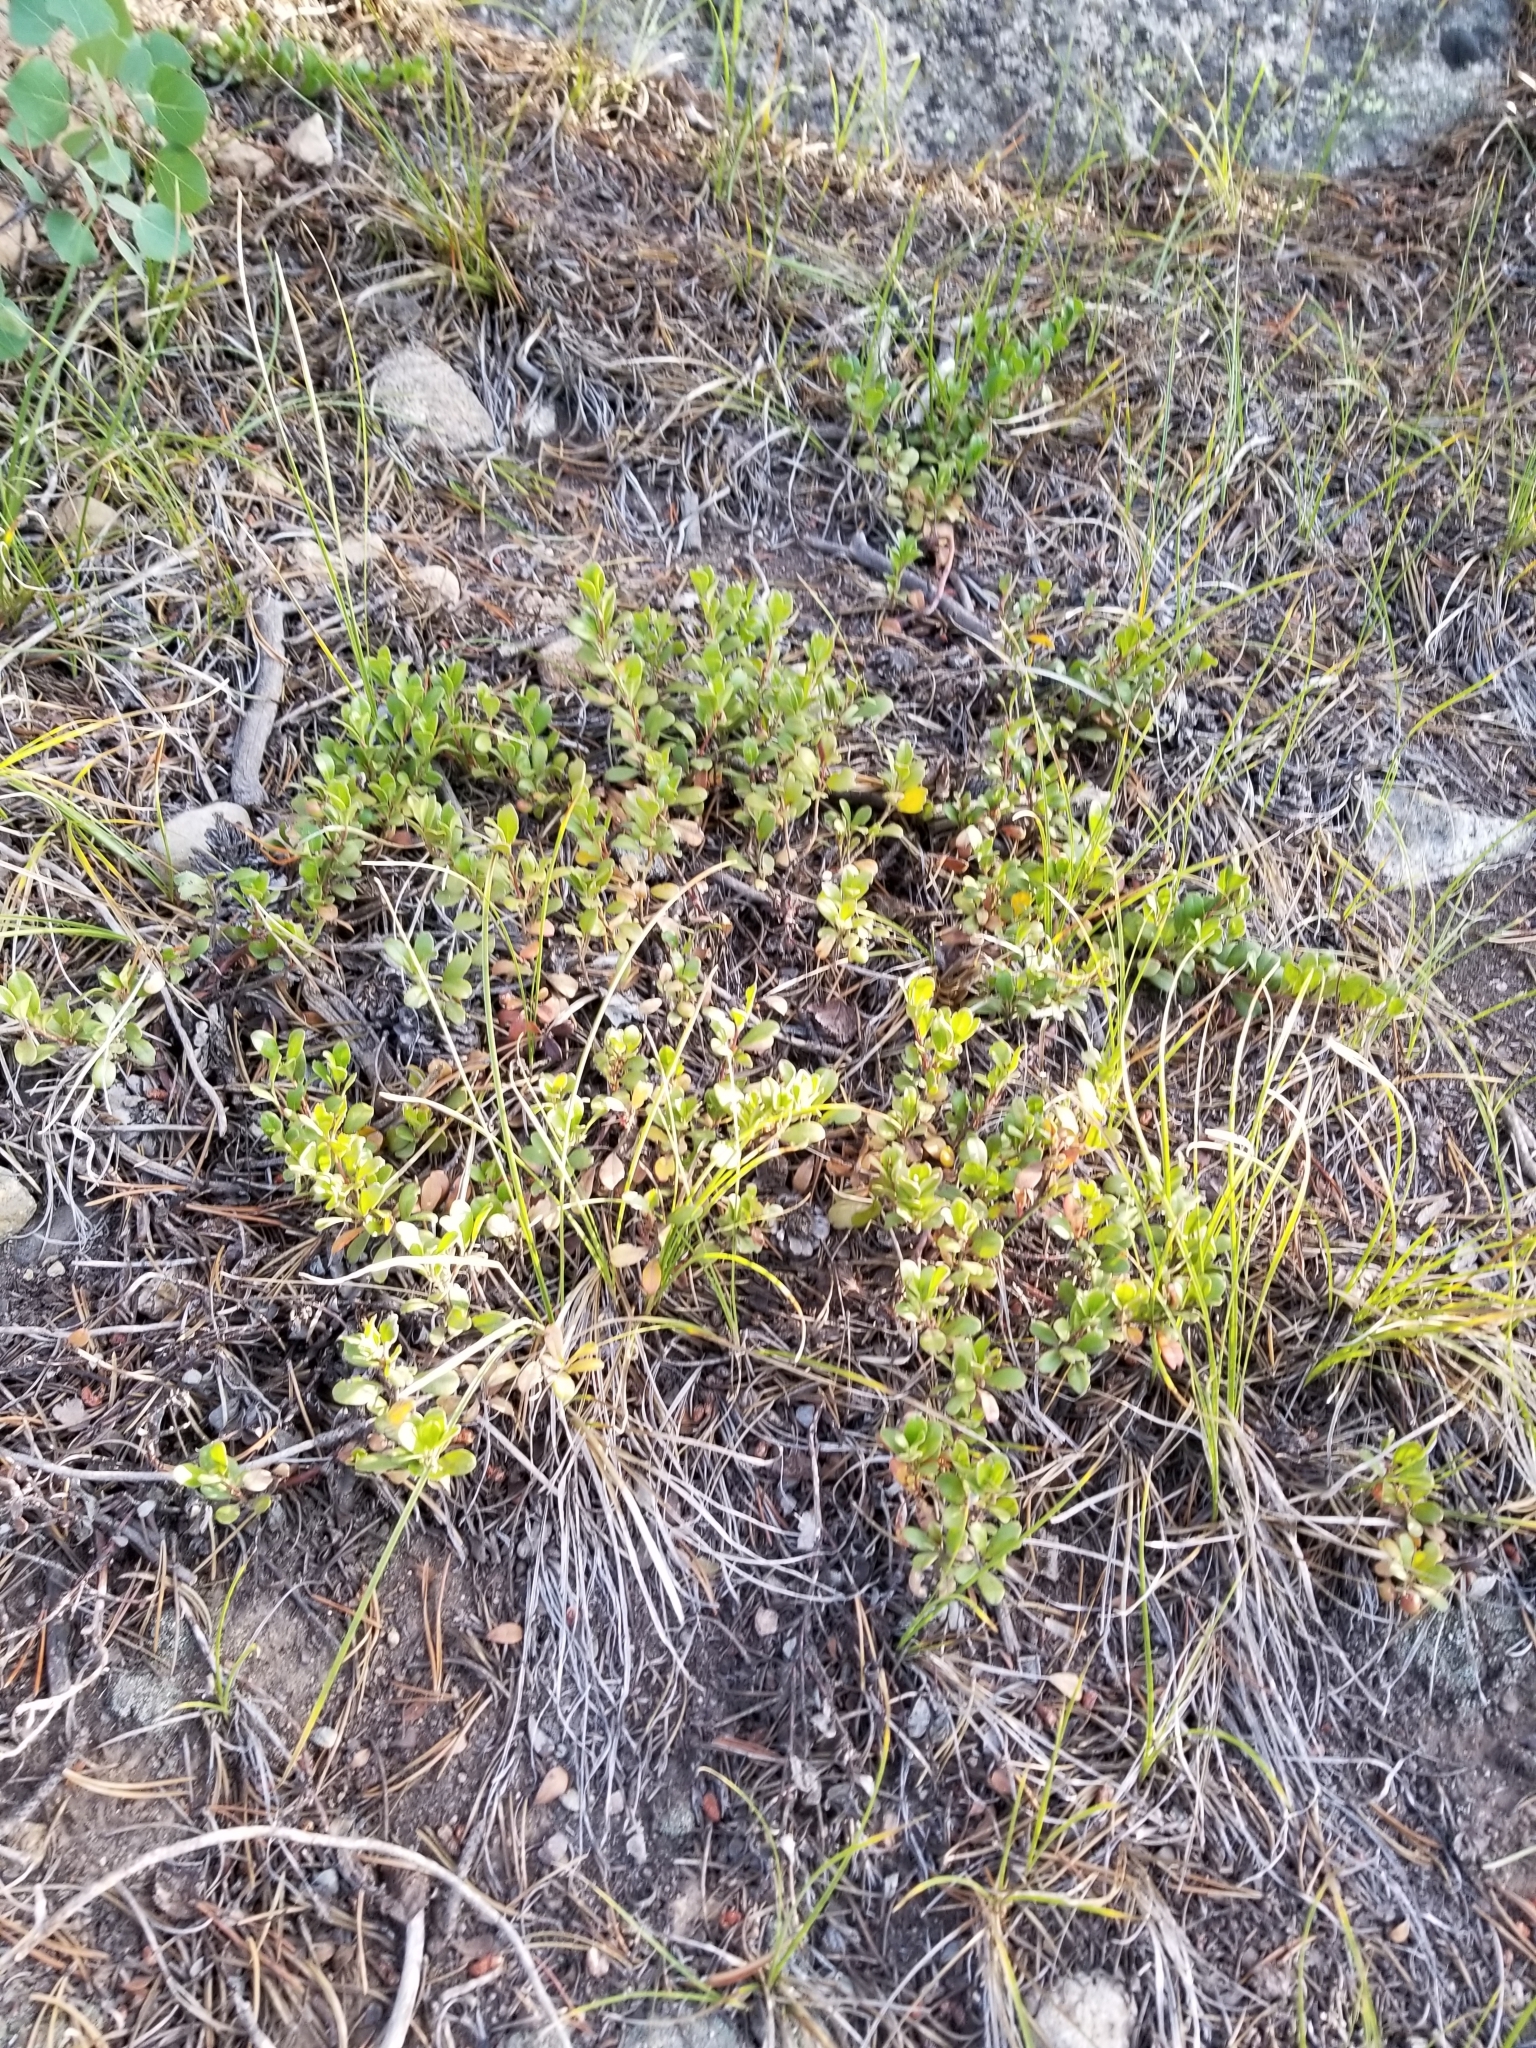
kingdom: Plantae
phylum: Tracheophyta
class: Magnoliopsida
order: Ericales
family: Ericaceae
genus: Arctostaphylos
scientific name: Arctostaphylos uva-ursi
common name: Bearberry
